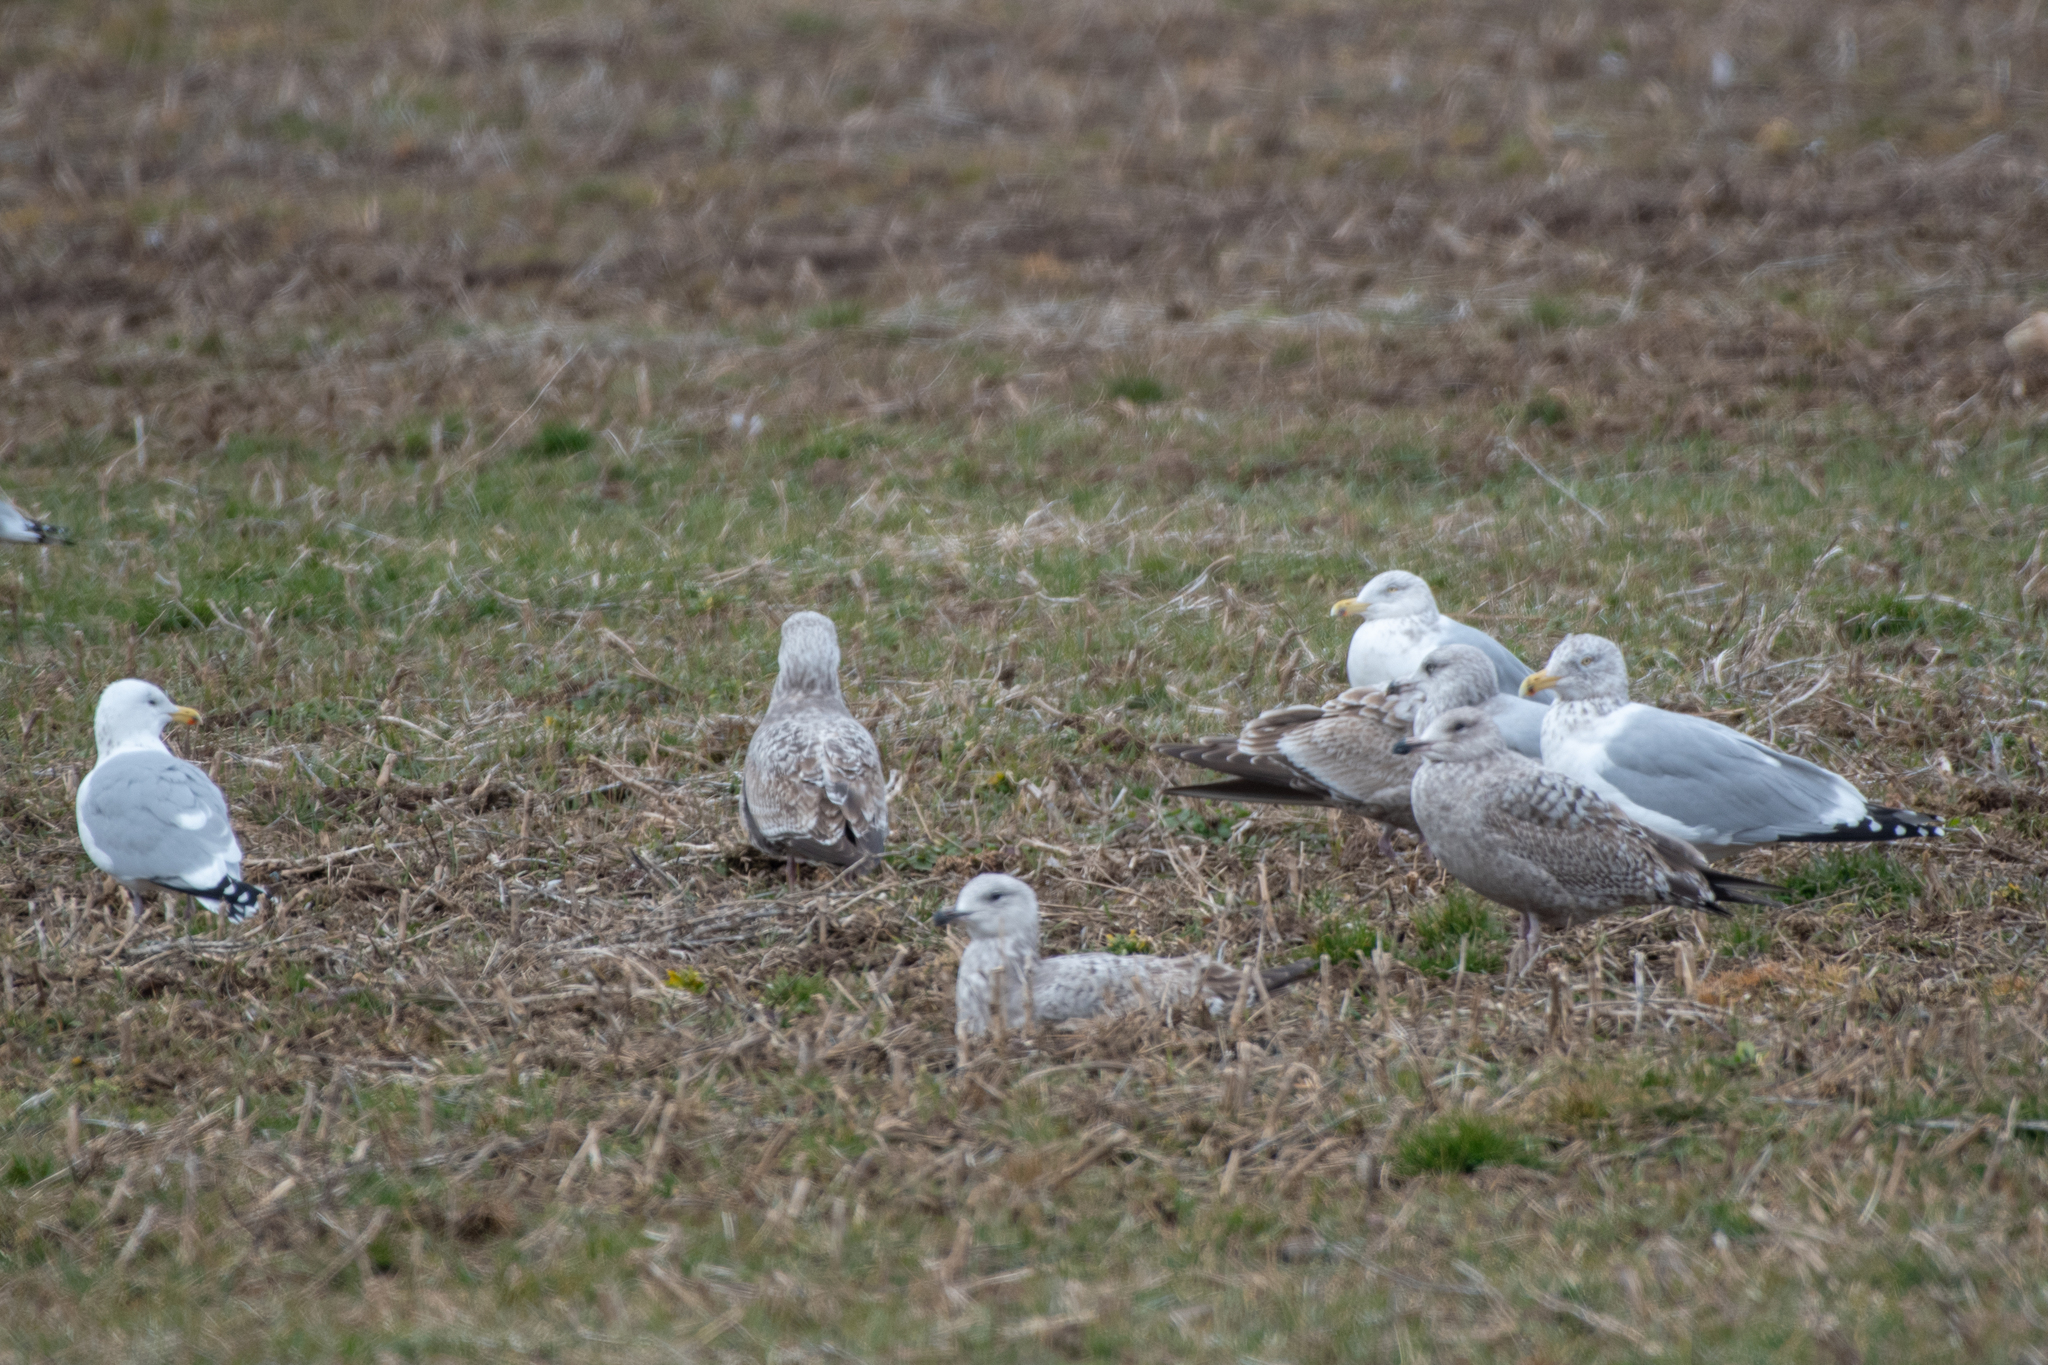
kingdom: Animalia
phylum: Chordata
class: Aves
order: Charadriiformes
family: Laridae
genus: Larus
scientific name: Larus argentatus
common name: Herring gull
